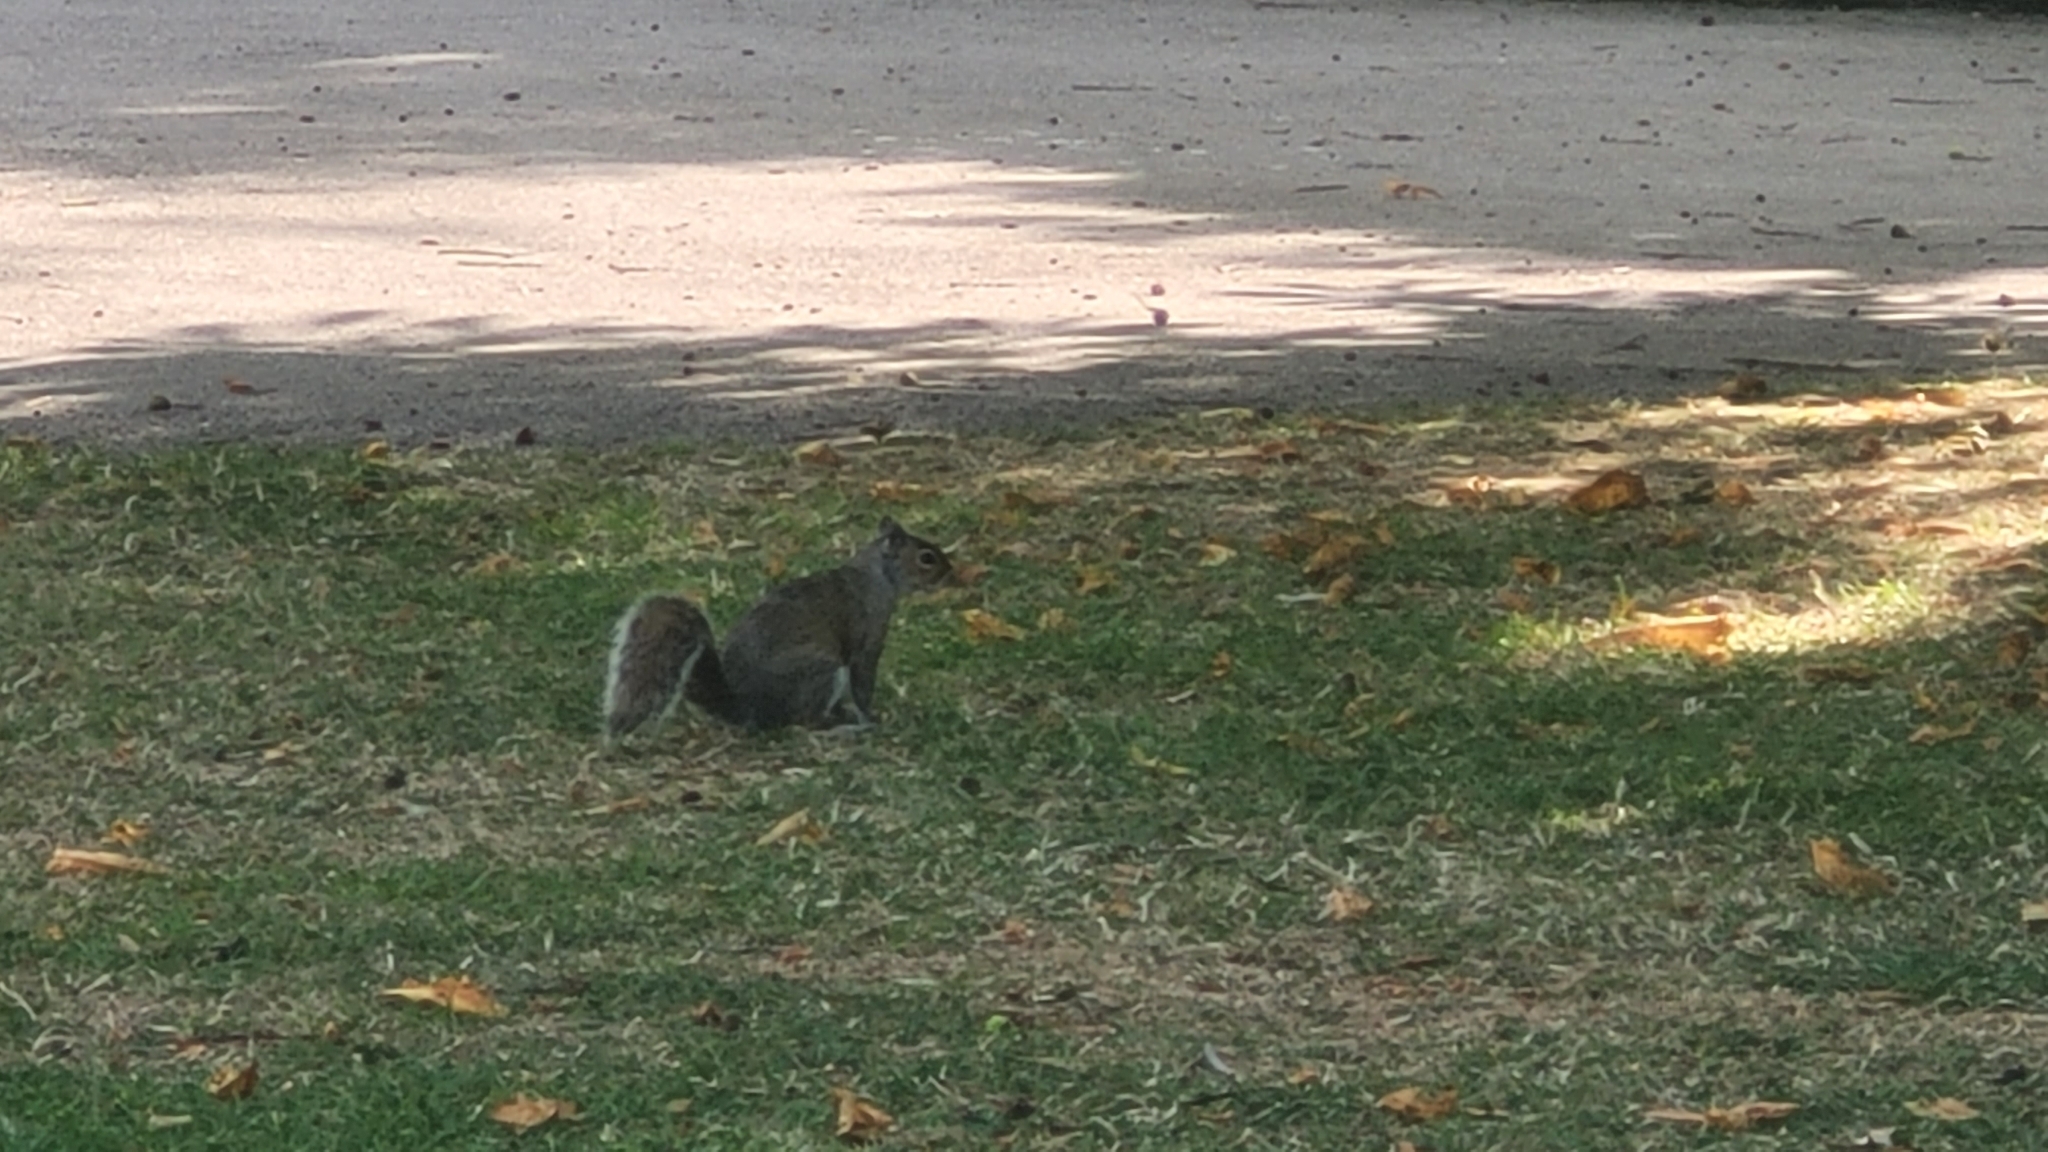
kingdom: Animalia
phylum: Chordata
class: Mammalia
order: Rodentia
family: Sciuridae
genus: Sciurus
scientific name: Sciurus carolinensis
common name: Eastern gray squirrel
